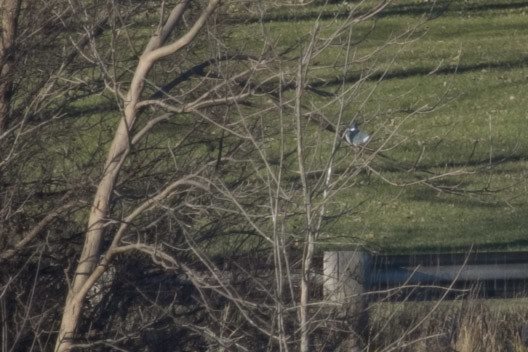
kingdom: Animalia
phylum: Chordata
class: Aves
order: Coraciiformes
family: Alcedinidae
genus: Megaceryle
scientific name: Megaceryle alcyon
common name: Belted kingfisher
